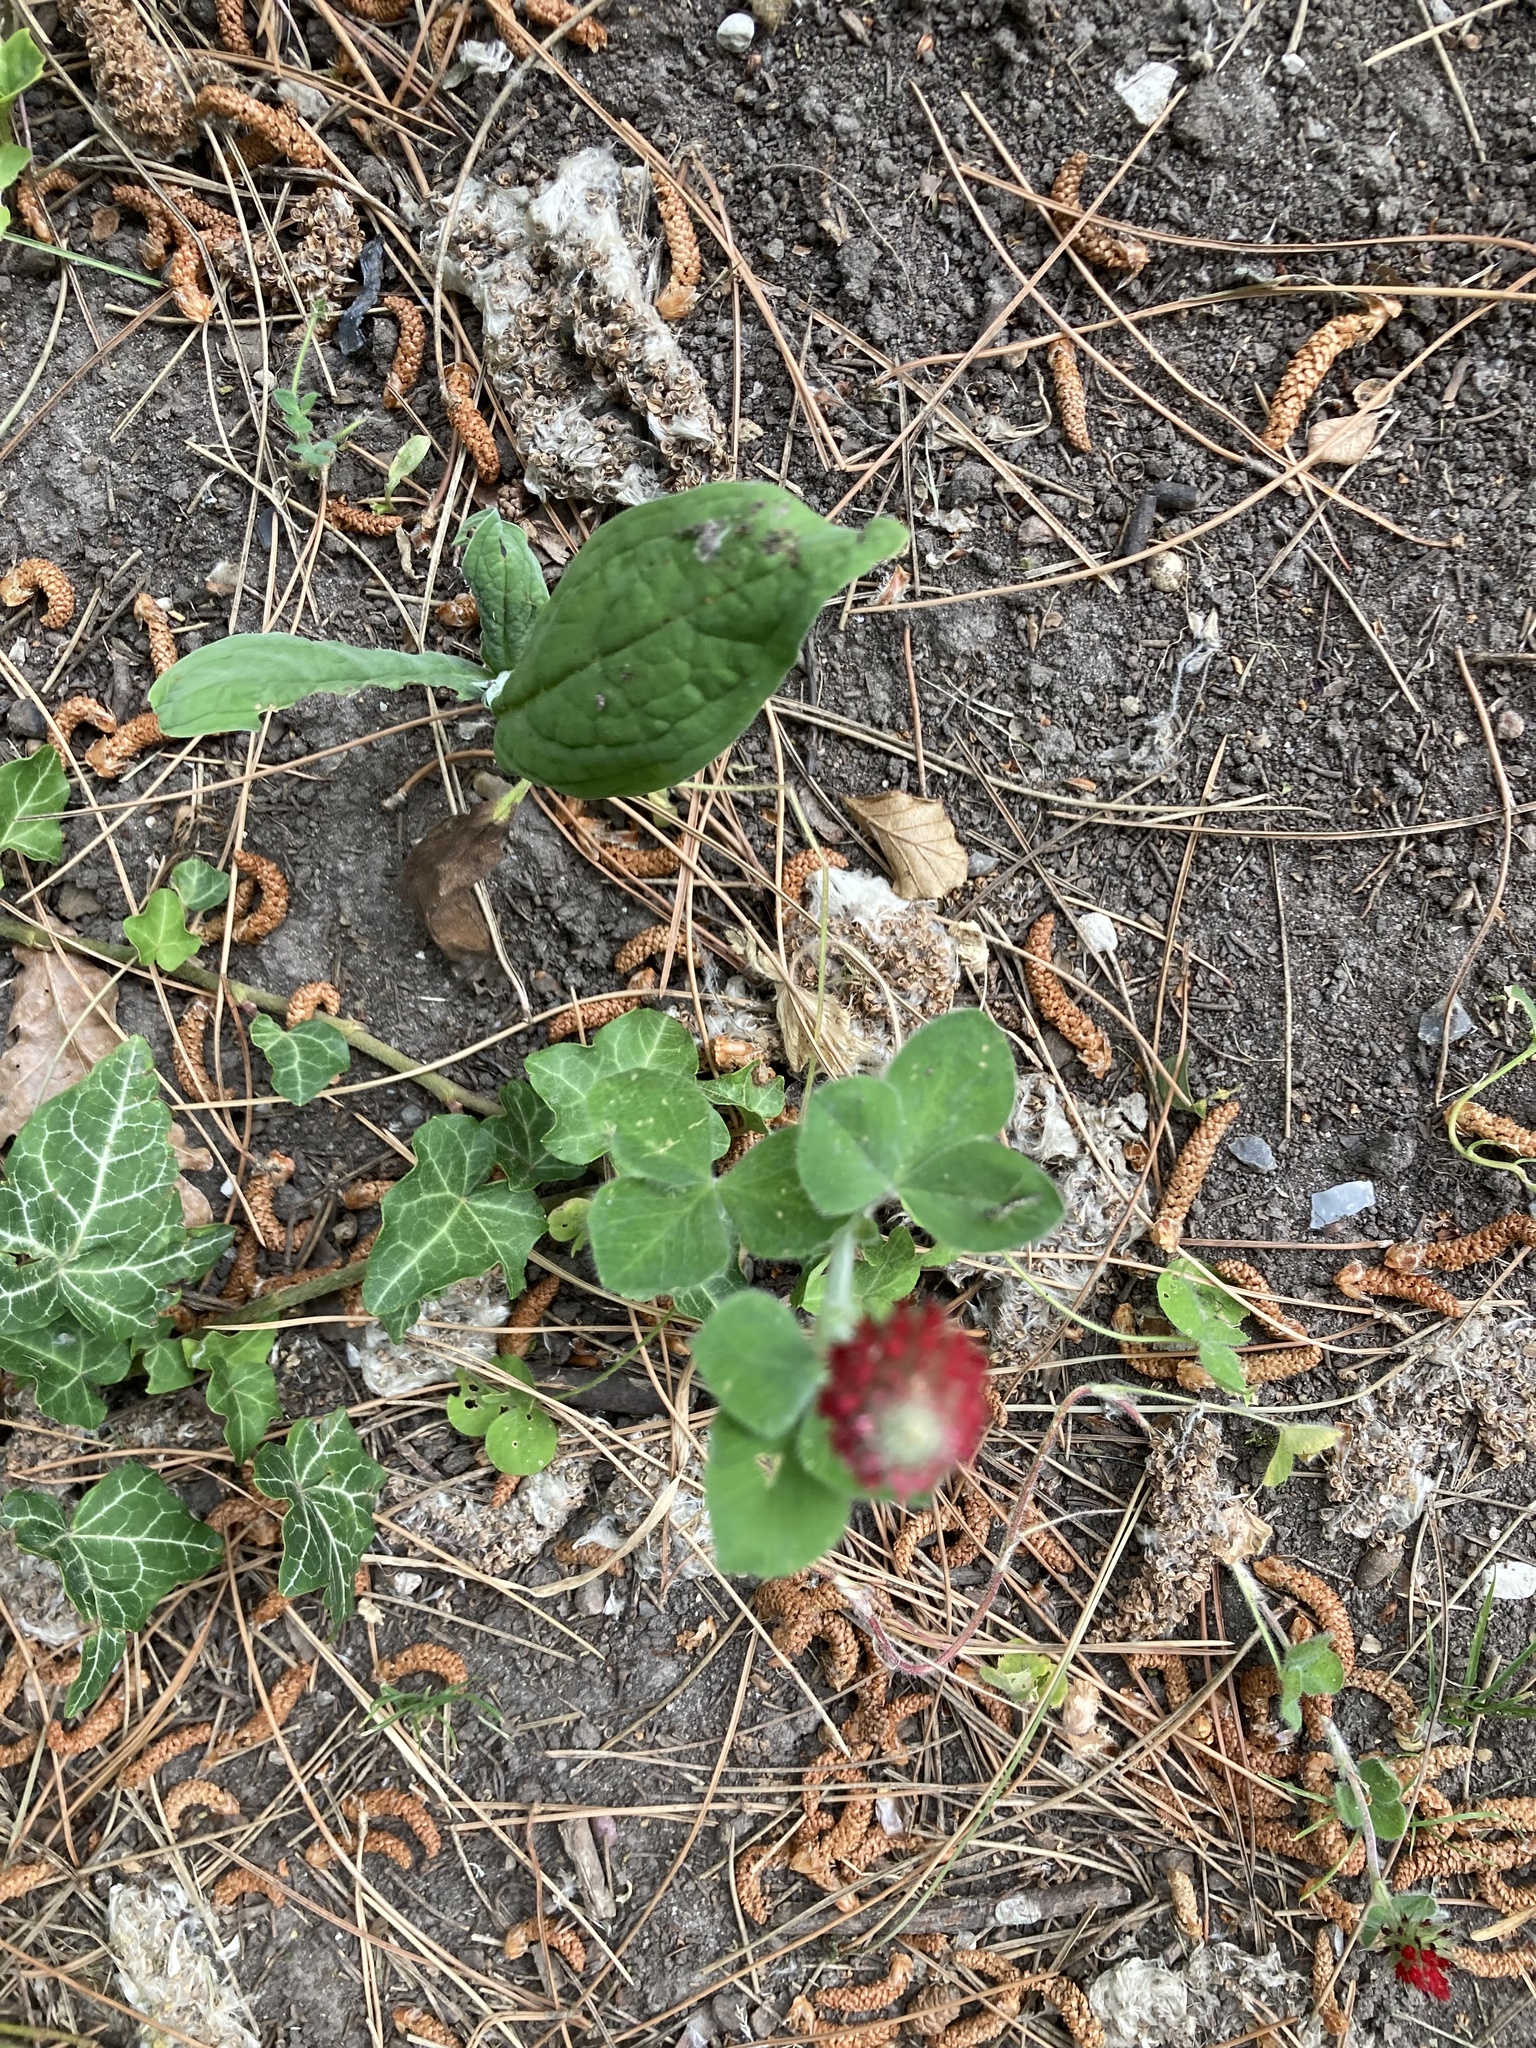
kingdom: Plantae
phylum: Tracheophyta
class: Magnoliopsida
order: Fabales
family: Fabaceae
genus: Trifolium
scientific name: Trifolium incarnatum
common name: Crimson clover
